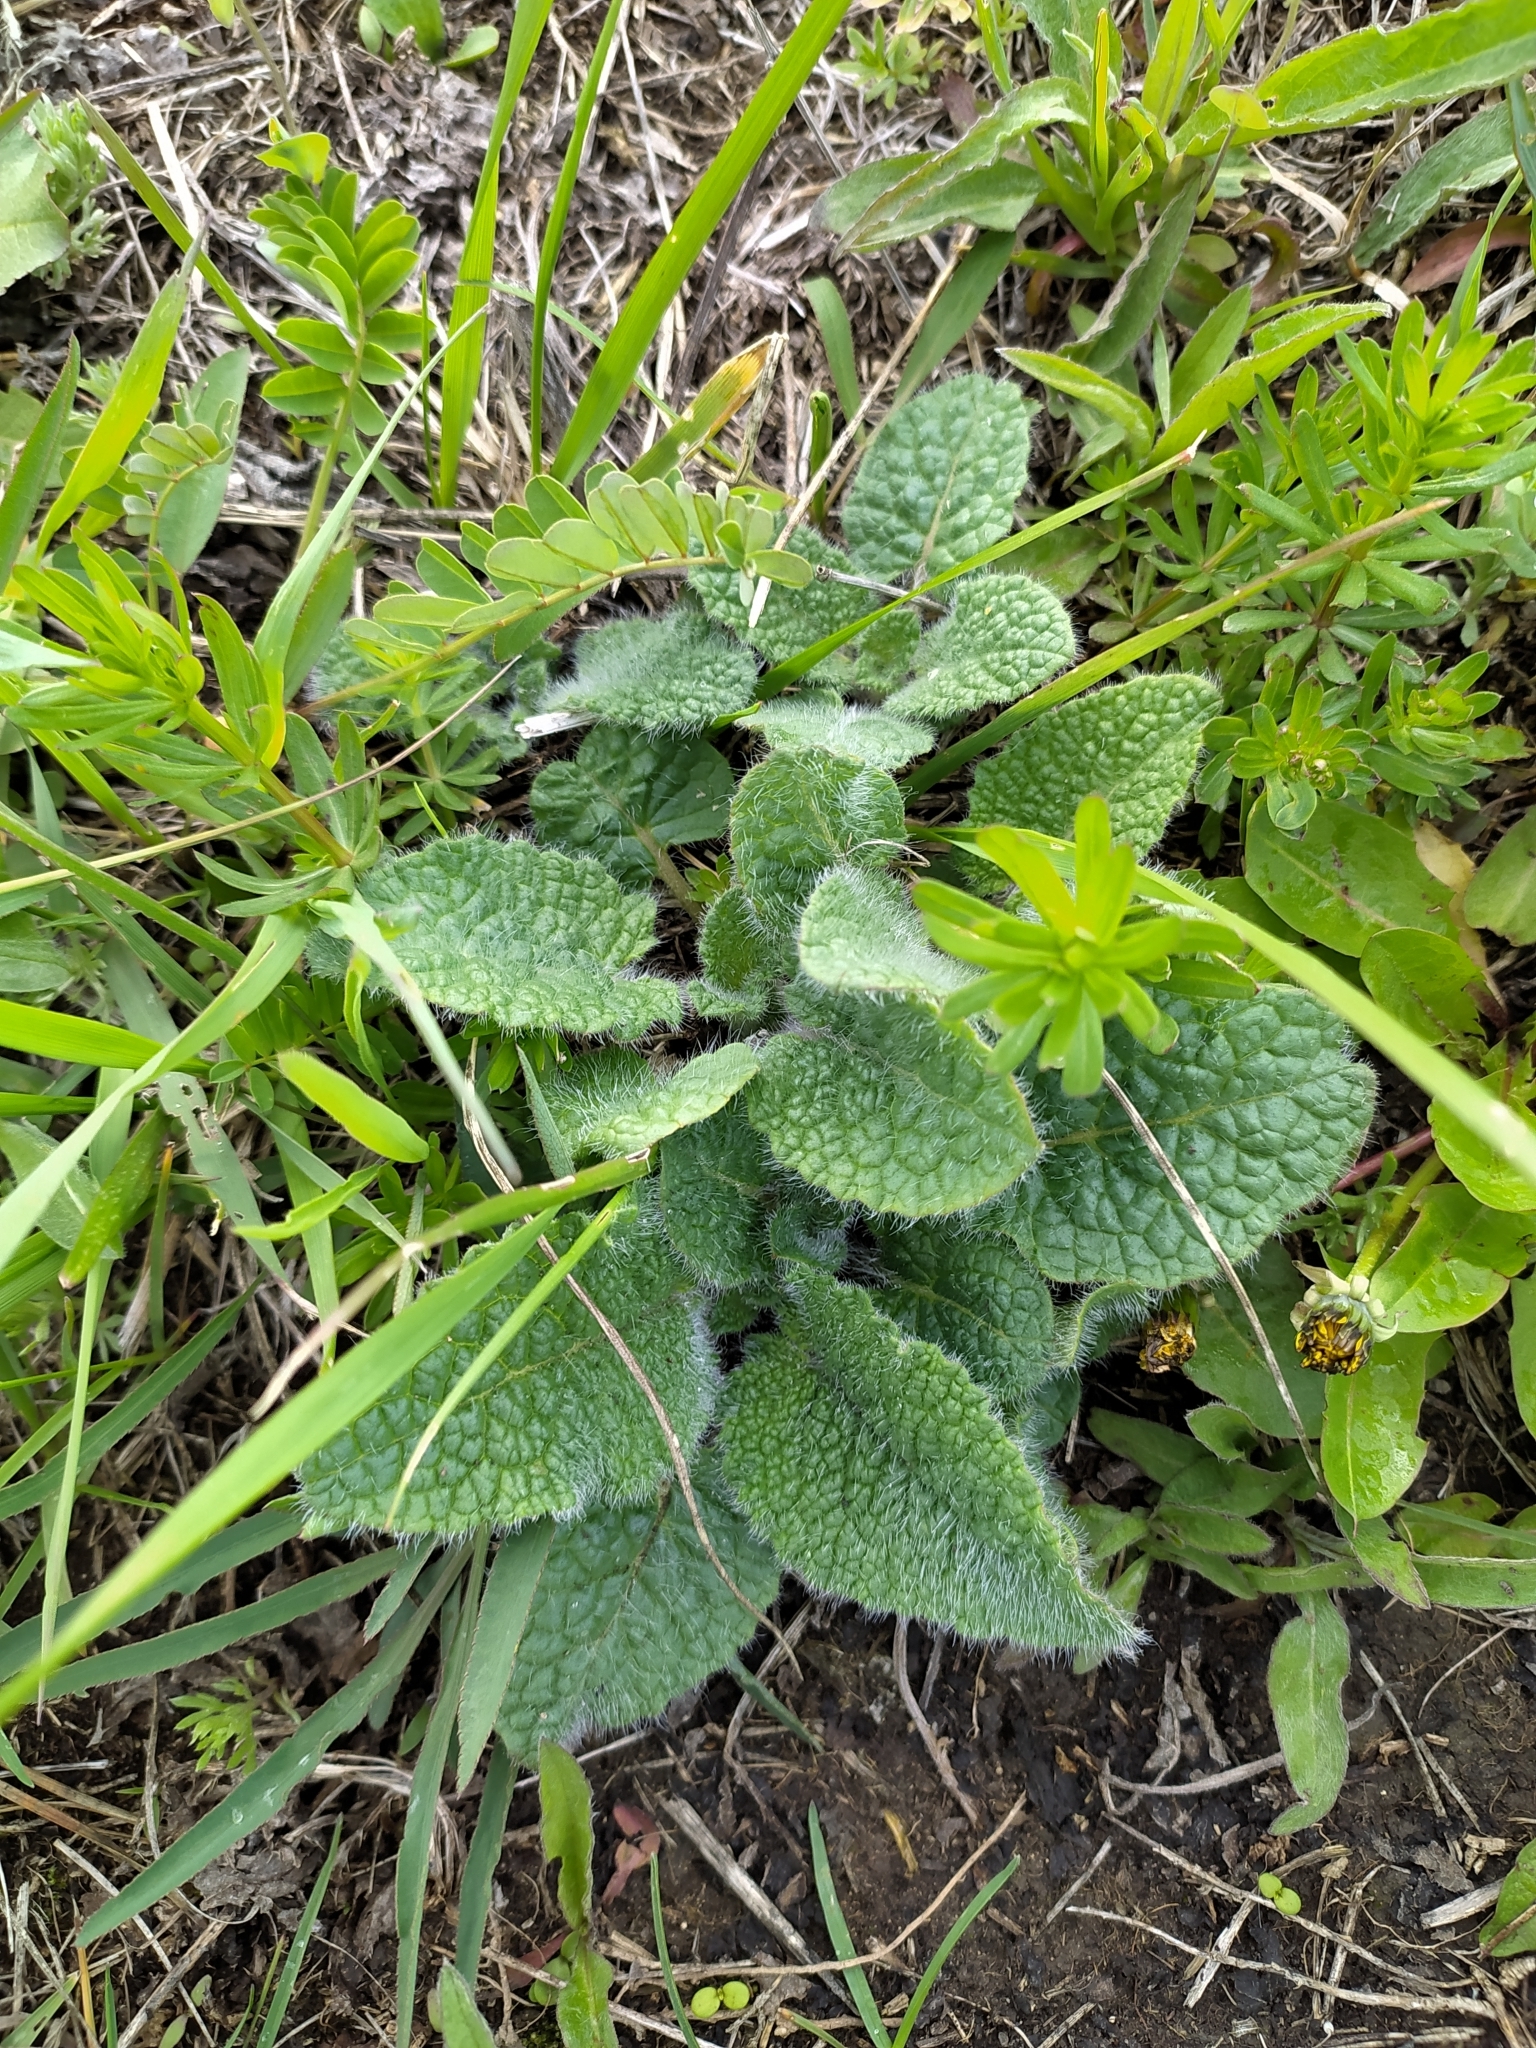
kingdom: Plantae
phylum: Tracheophyta
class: Magnoliopsida
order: Lamiales
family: Lamiaceae
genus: Salvia
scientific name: Salvia verticillata
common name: Whorled clary
